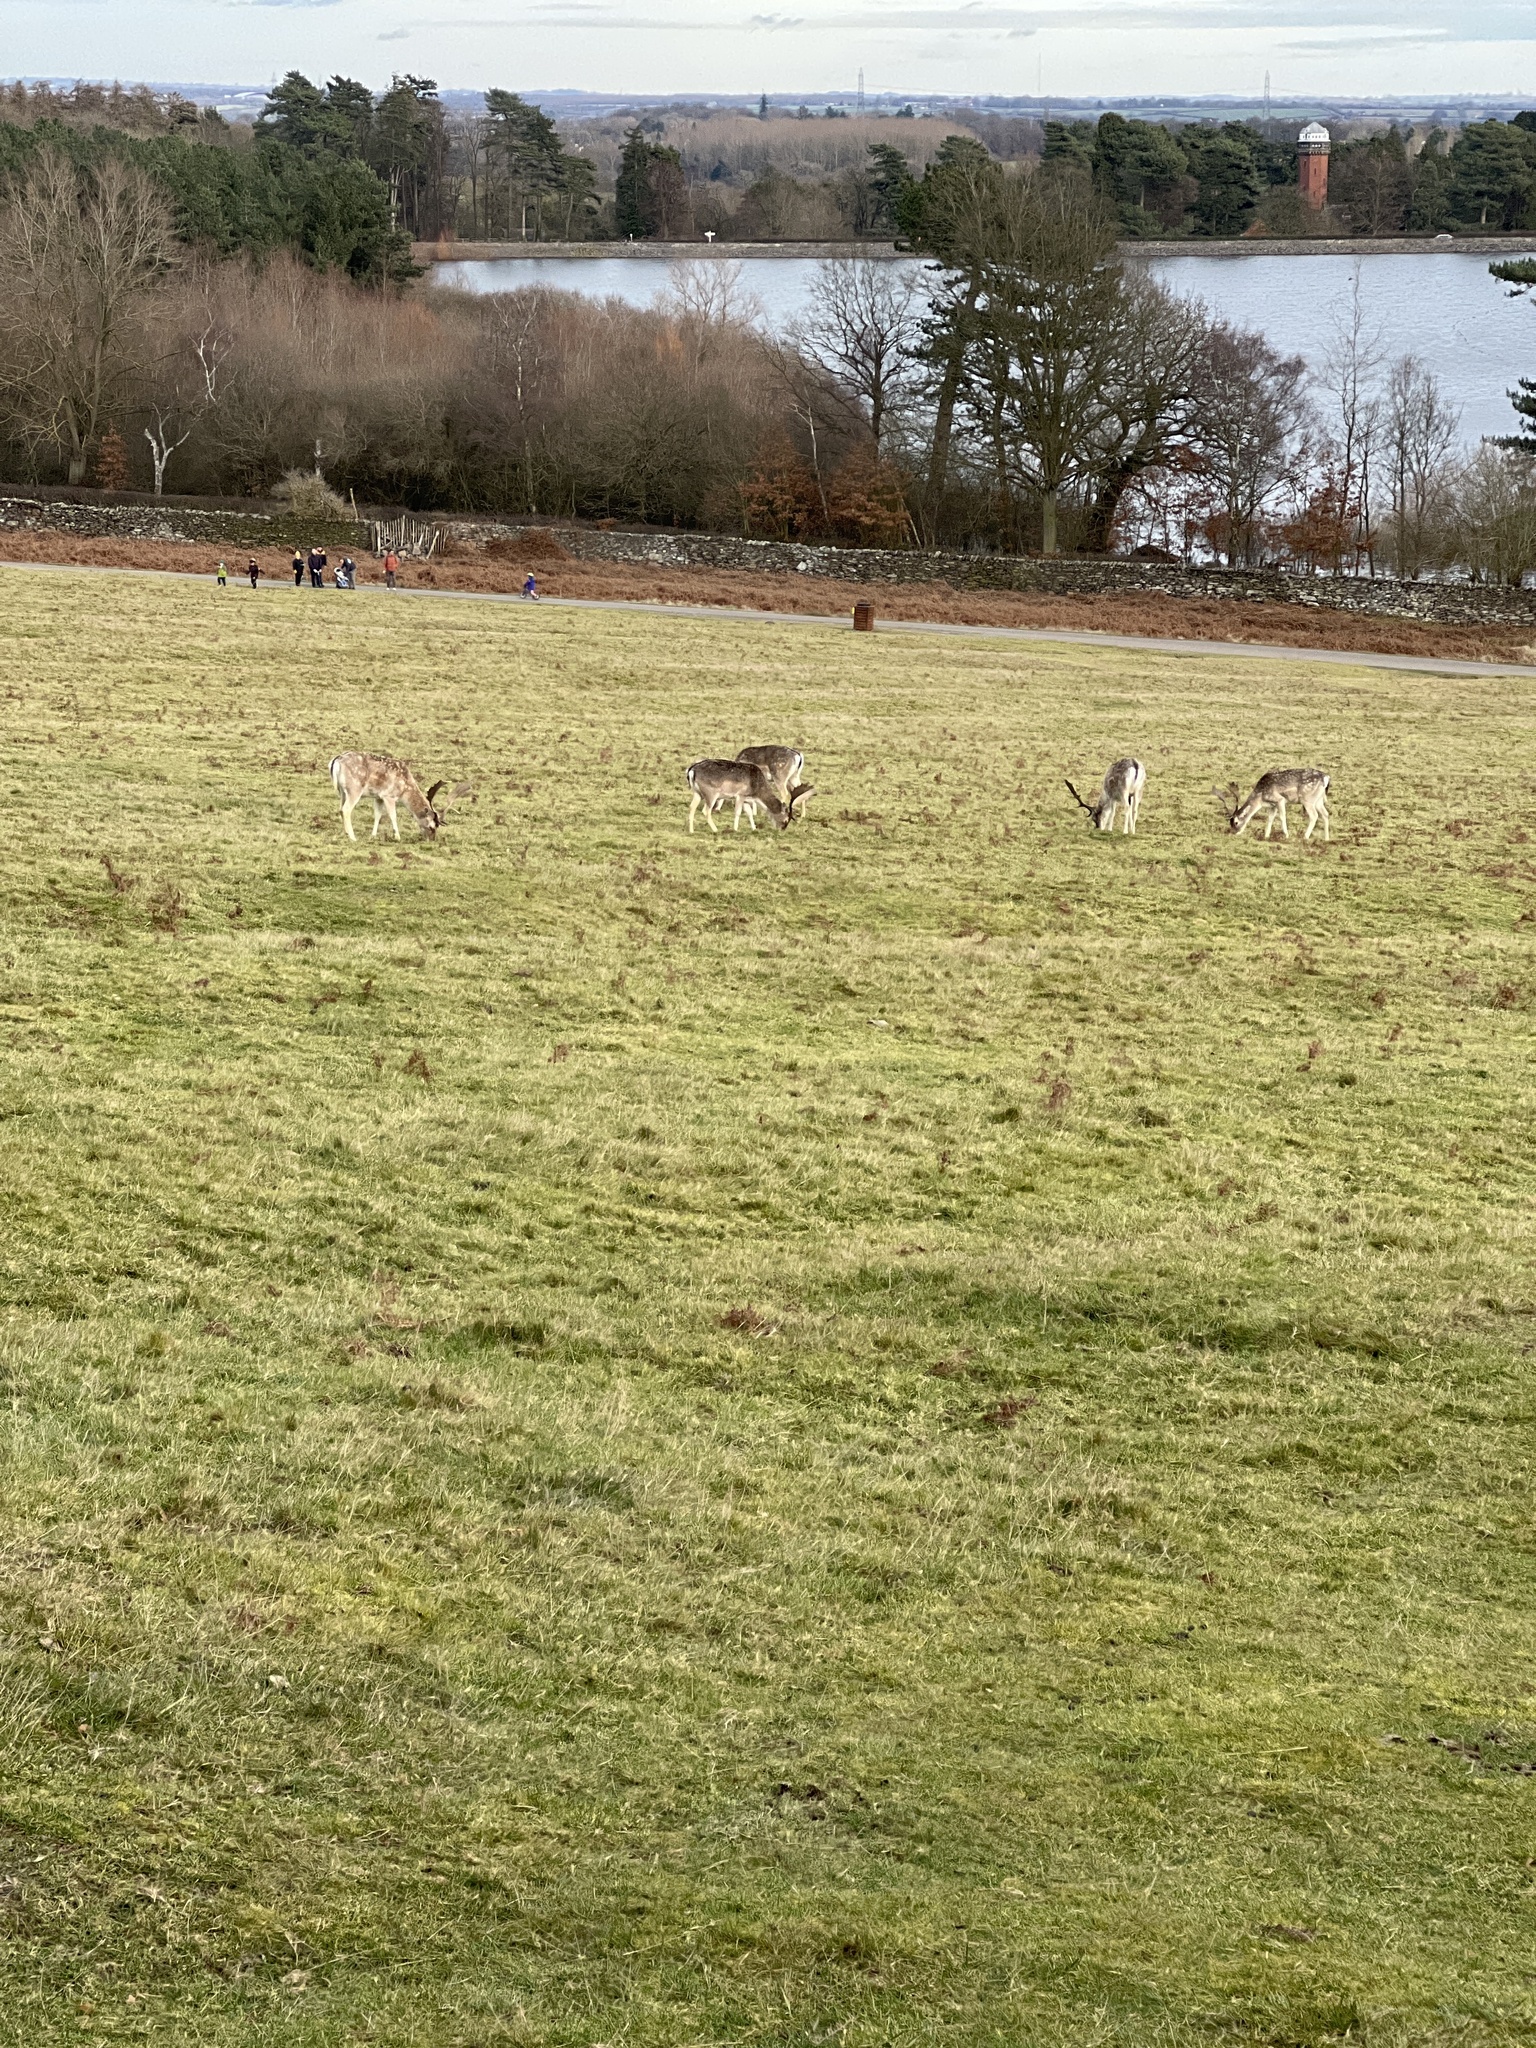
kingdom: Animalia
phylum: Chordata
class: Mammalia
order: Artiodactyla
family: Cervidae
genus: Dama
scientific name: Dama dama
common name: Fallow deer
